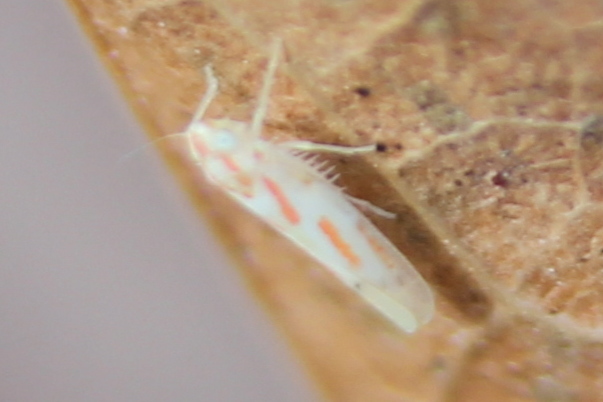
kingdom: Animalia
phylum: Arthropoda
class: Insecta
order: Hemiptera
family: Cicadellidae
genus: Dikrella
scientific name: Dikrella cruentata
